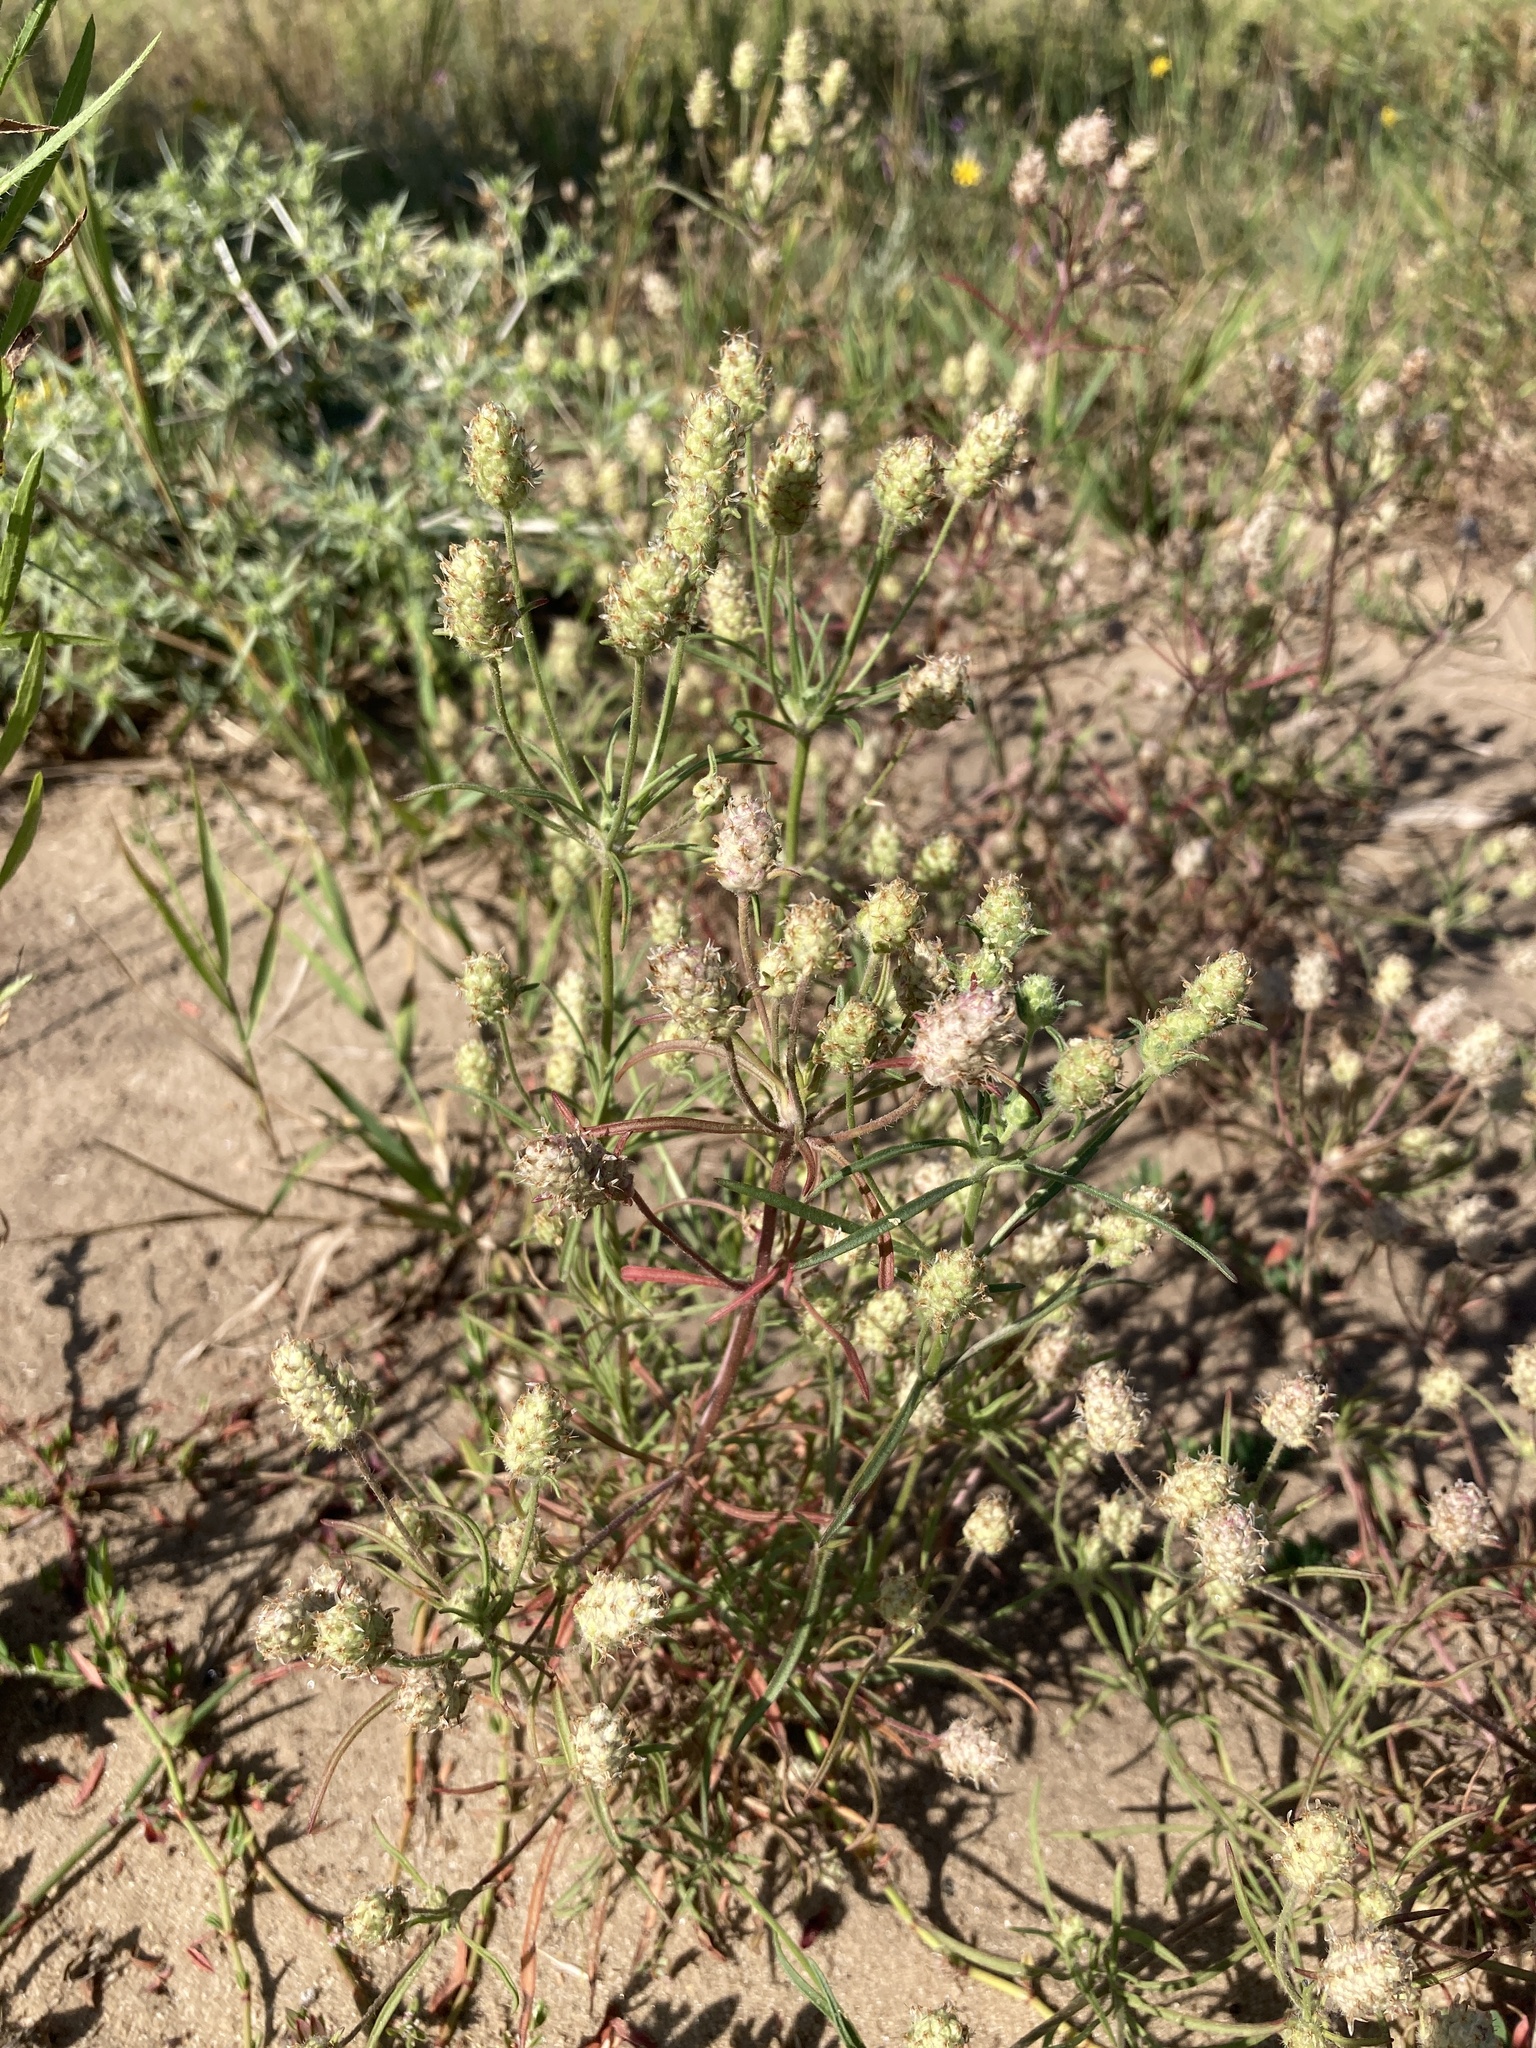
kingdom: Plantae
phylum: Tracheophyta
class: Magnoliopsida
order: Lamiales
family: Plantaginaceae
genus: Plantago
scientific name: Plantago arenaria
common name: Branched plantain
